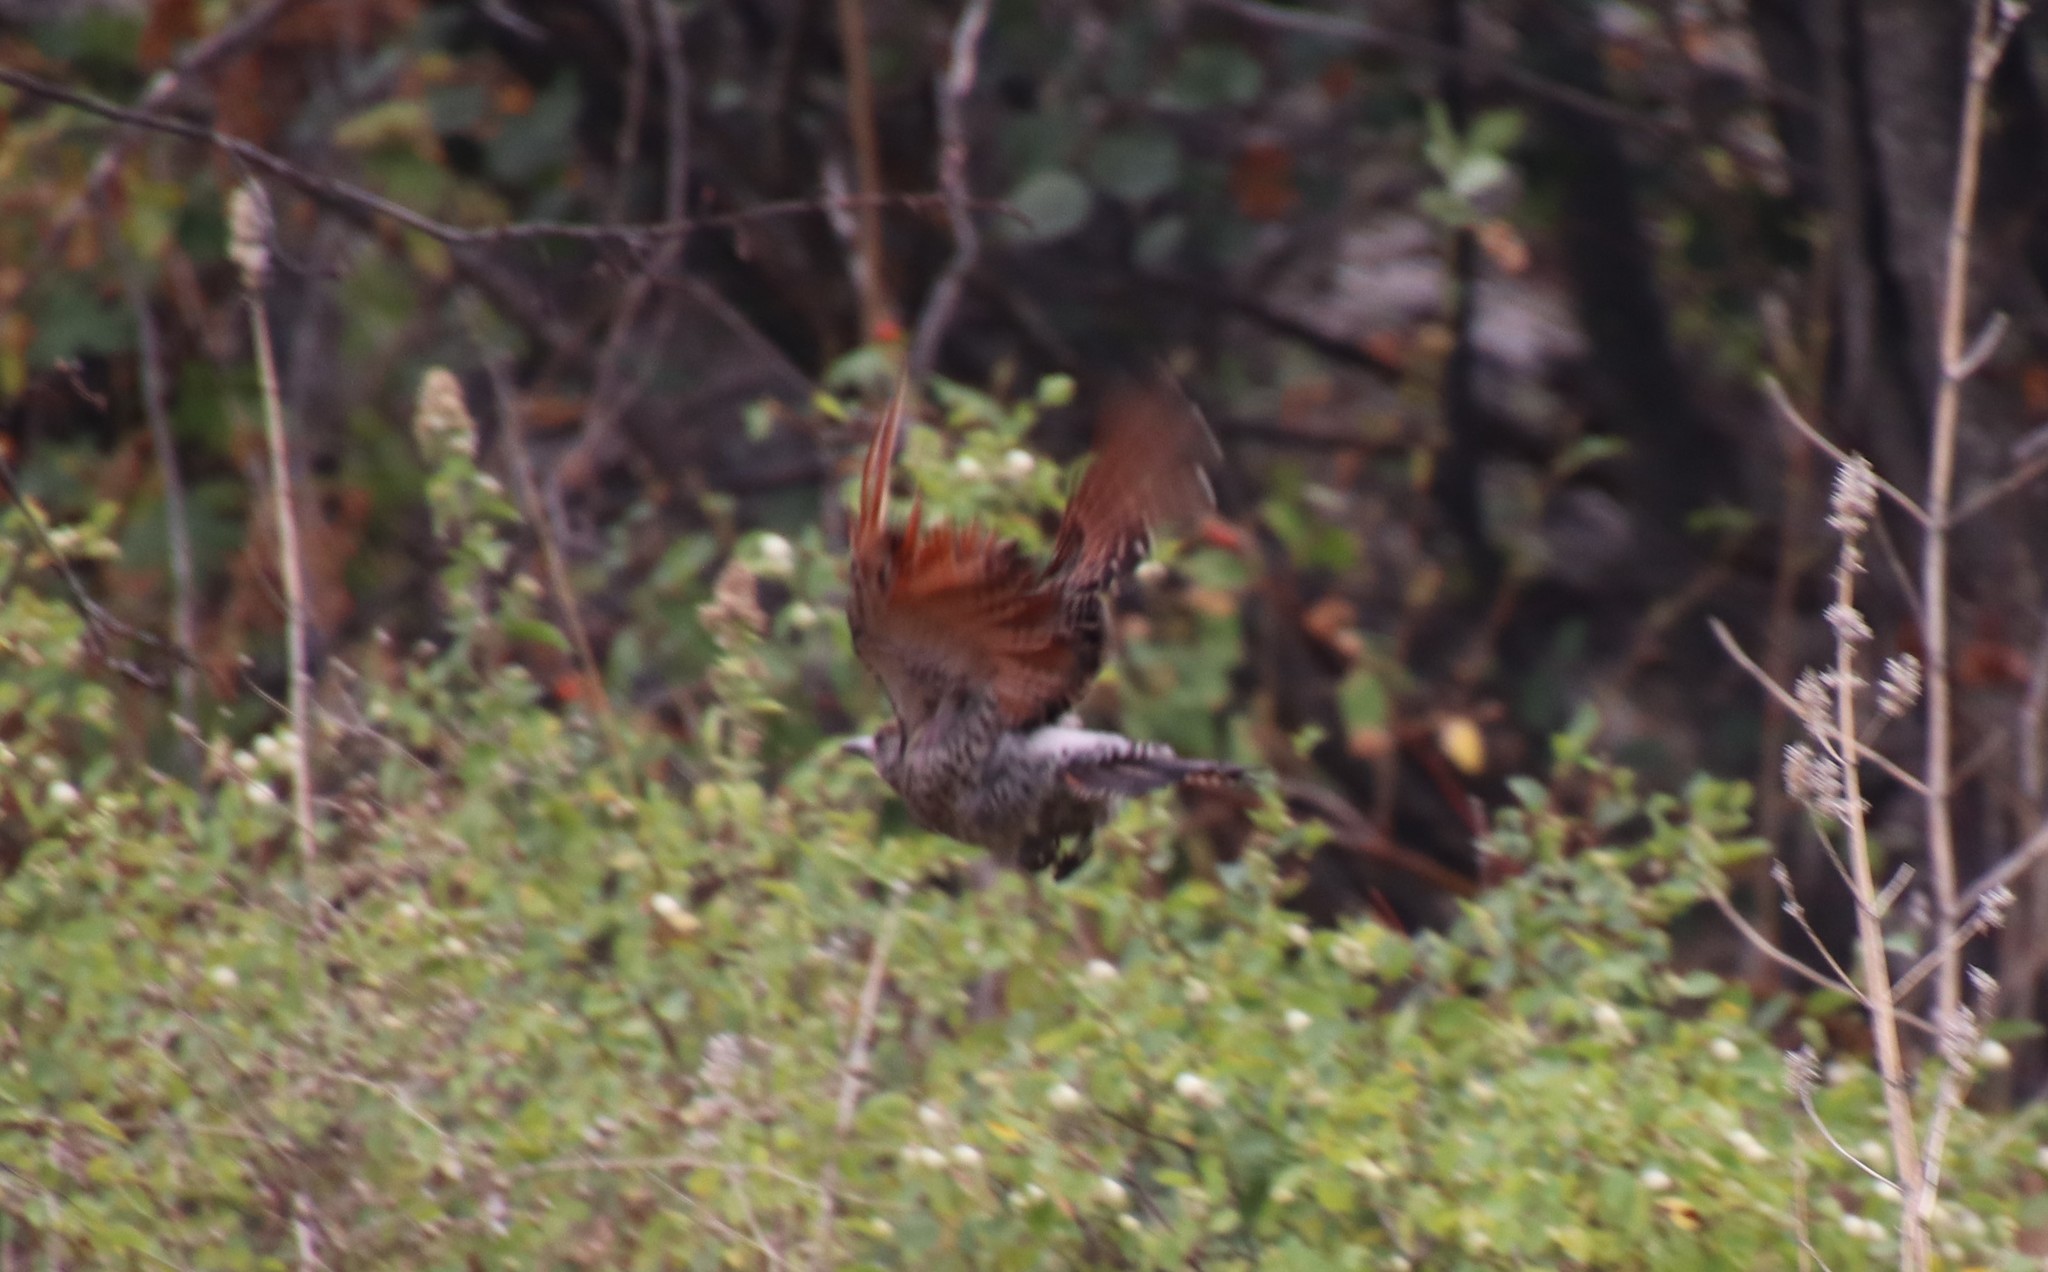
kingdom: Animalia
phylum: Chordata
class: Aves
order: Piciformes
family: Picidae
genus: Colaptes
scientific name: Colaptes auratus
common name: Northern flicker
